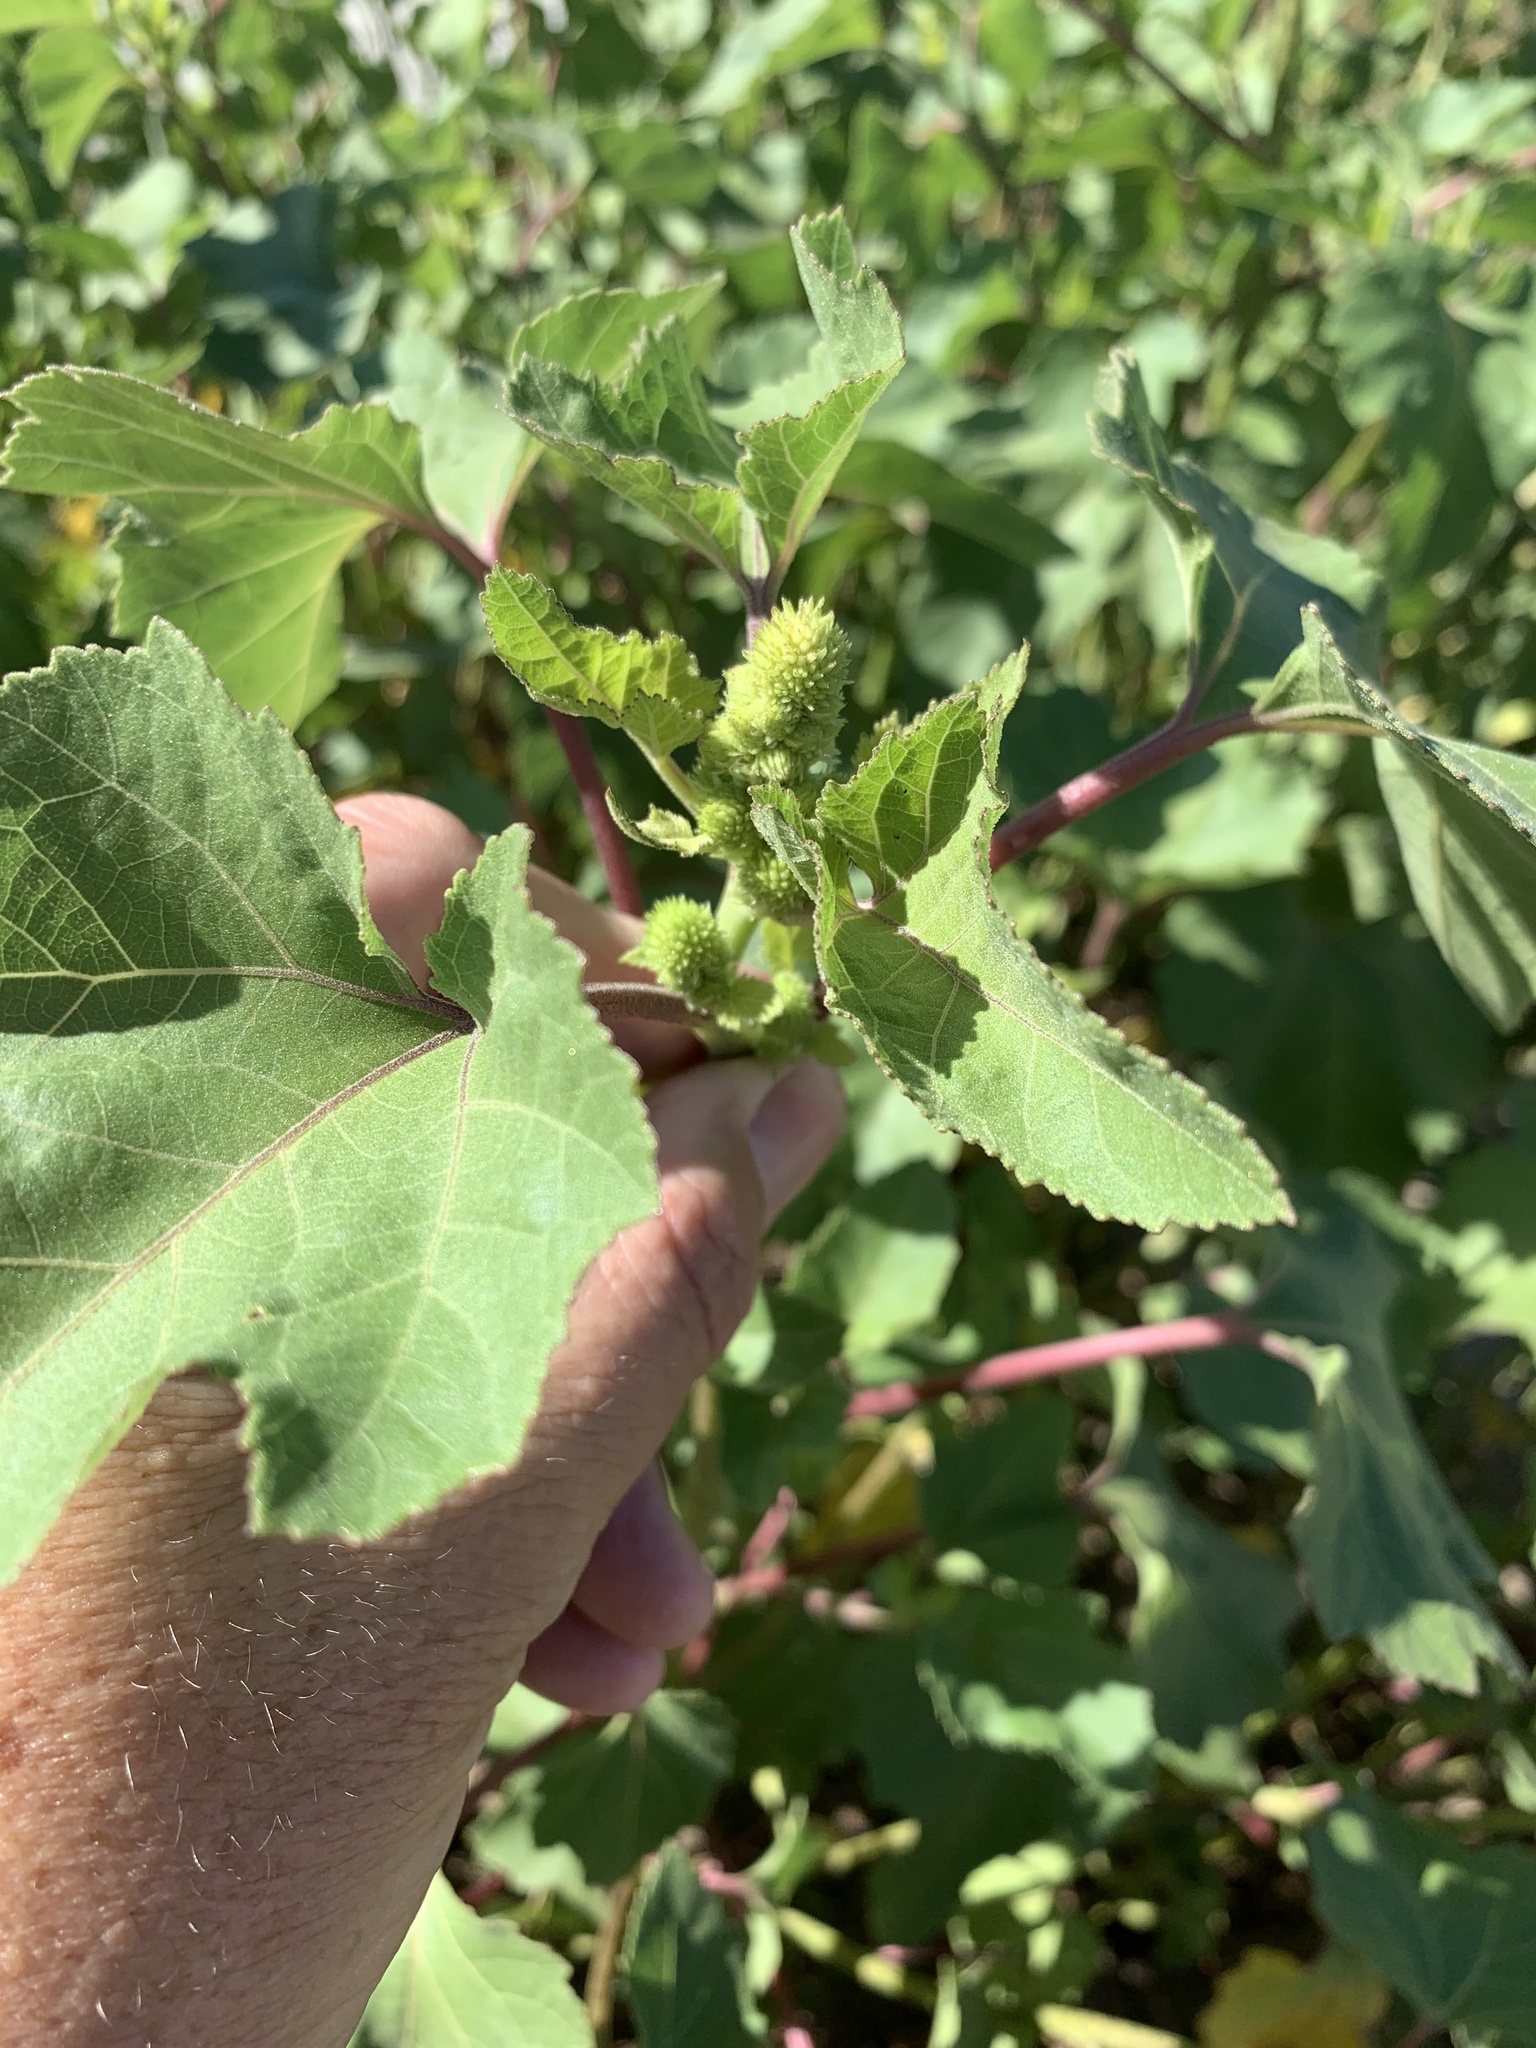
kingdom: Plantae
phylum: Tracheophyta
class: Magnoliopsida
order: Asterales
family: Asteraceae
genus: Xanthium
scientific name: Xanthium strumarium
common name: Rough cocklebur
